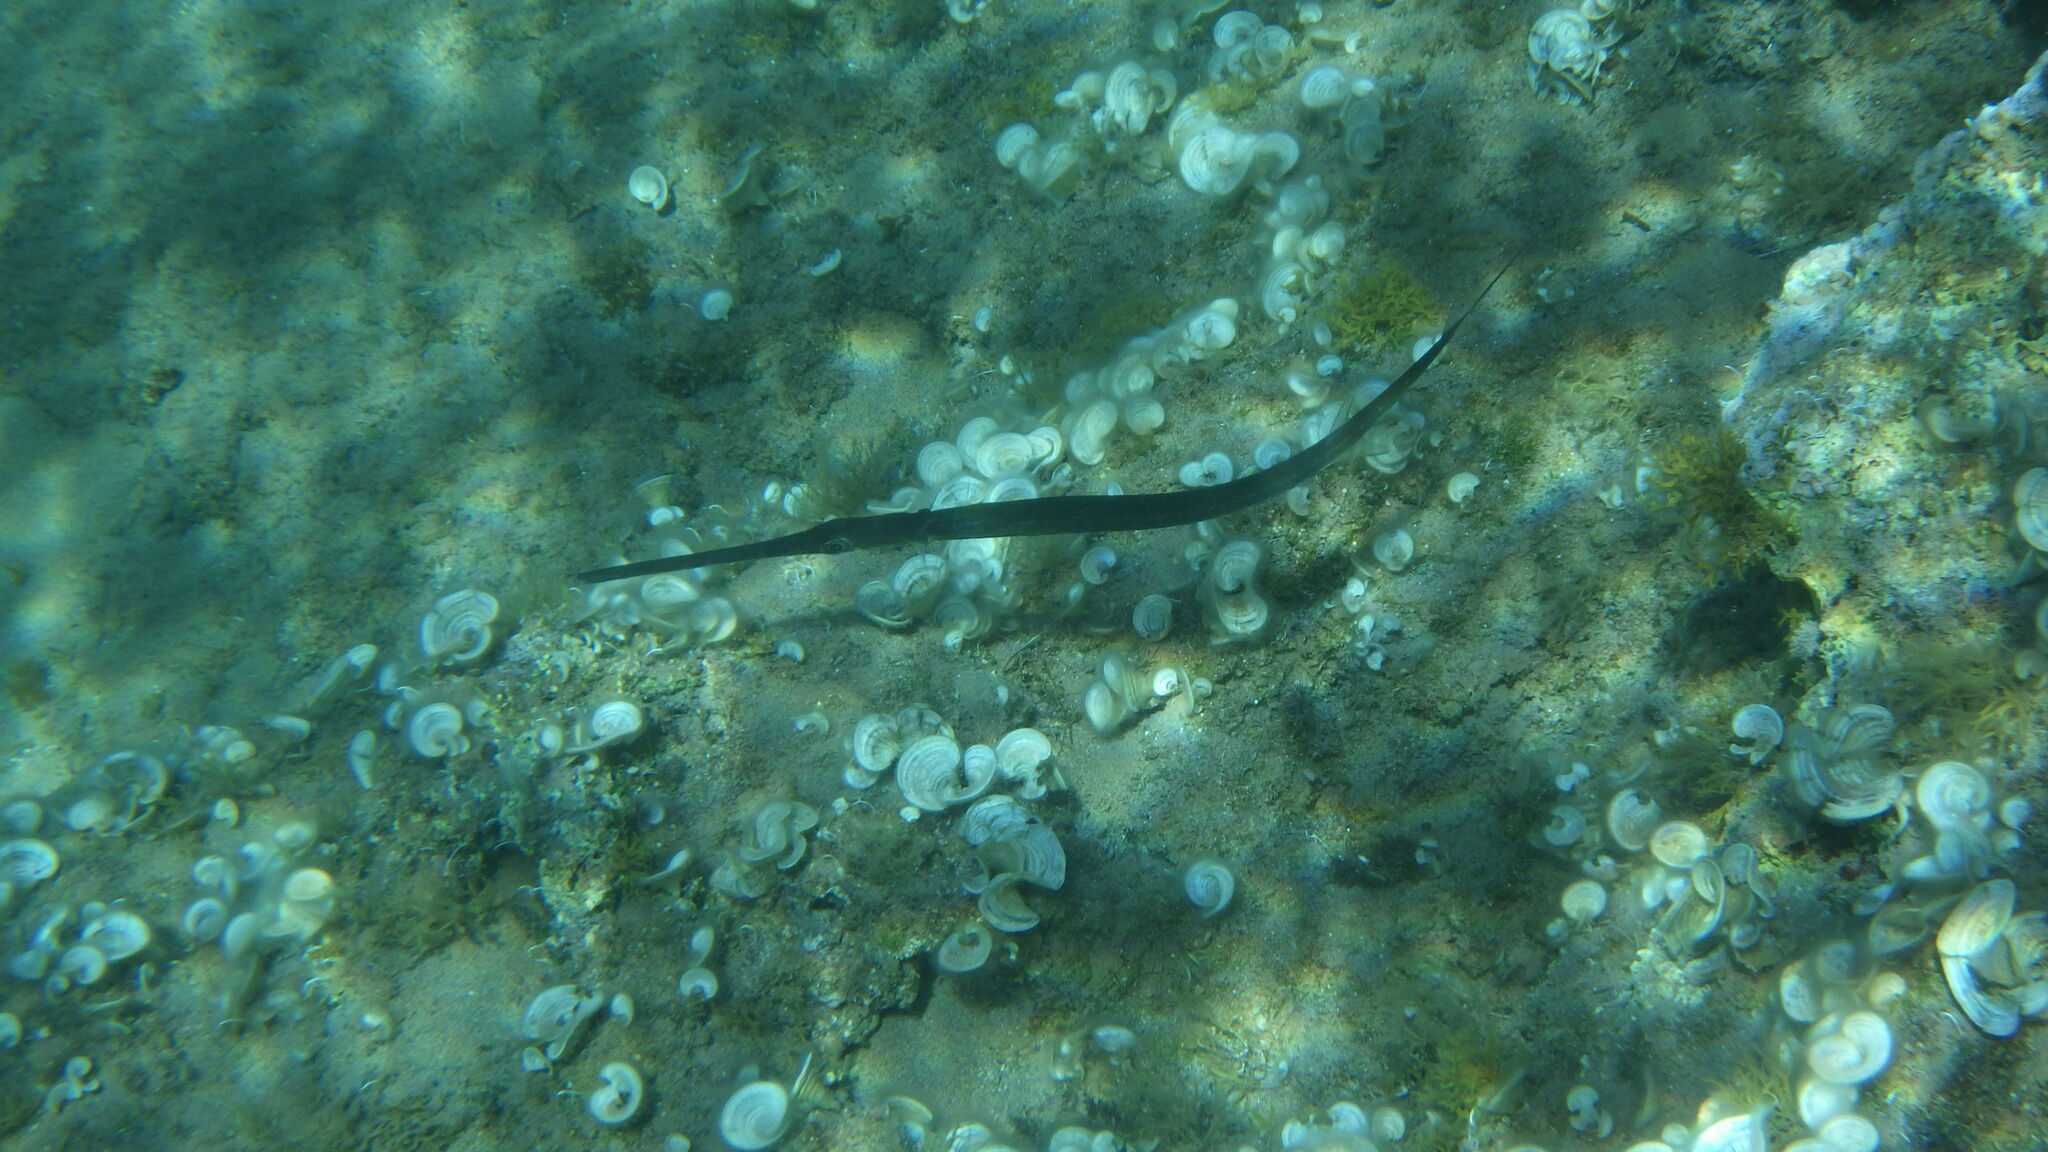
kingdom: Animalia
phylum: Chordata
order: Syngnathiformes
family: Fistulariidae
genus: Fistularia
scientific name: Fistularia commersonii
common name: Bluespotted cornetfish
